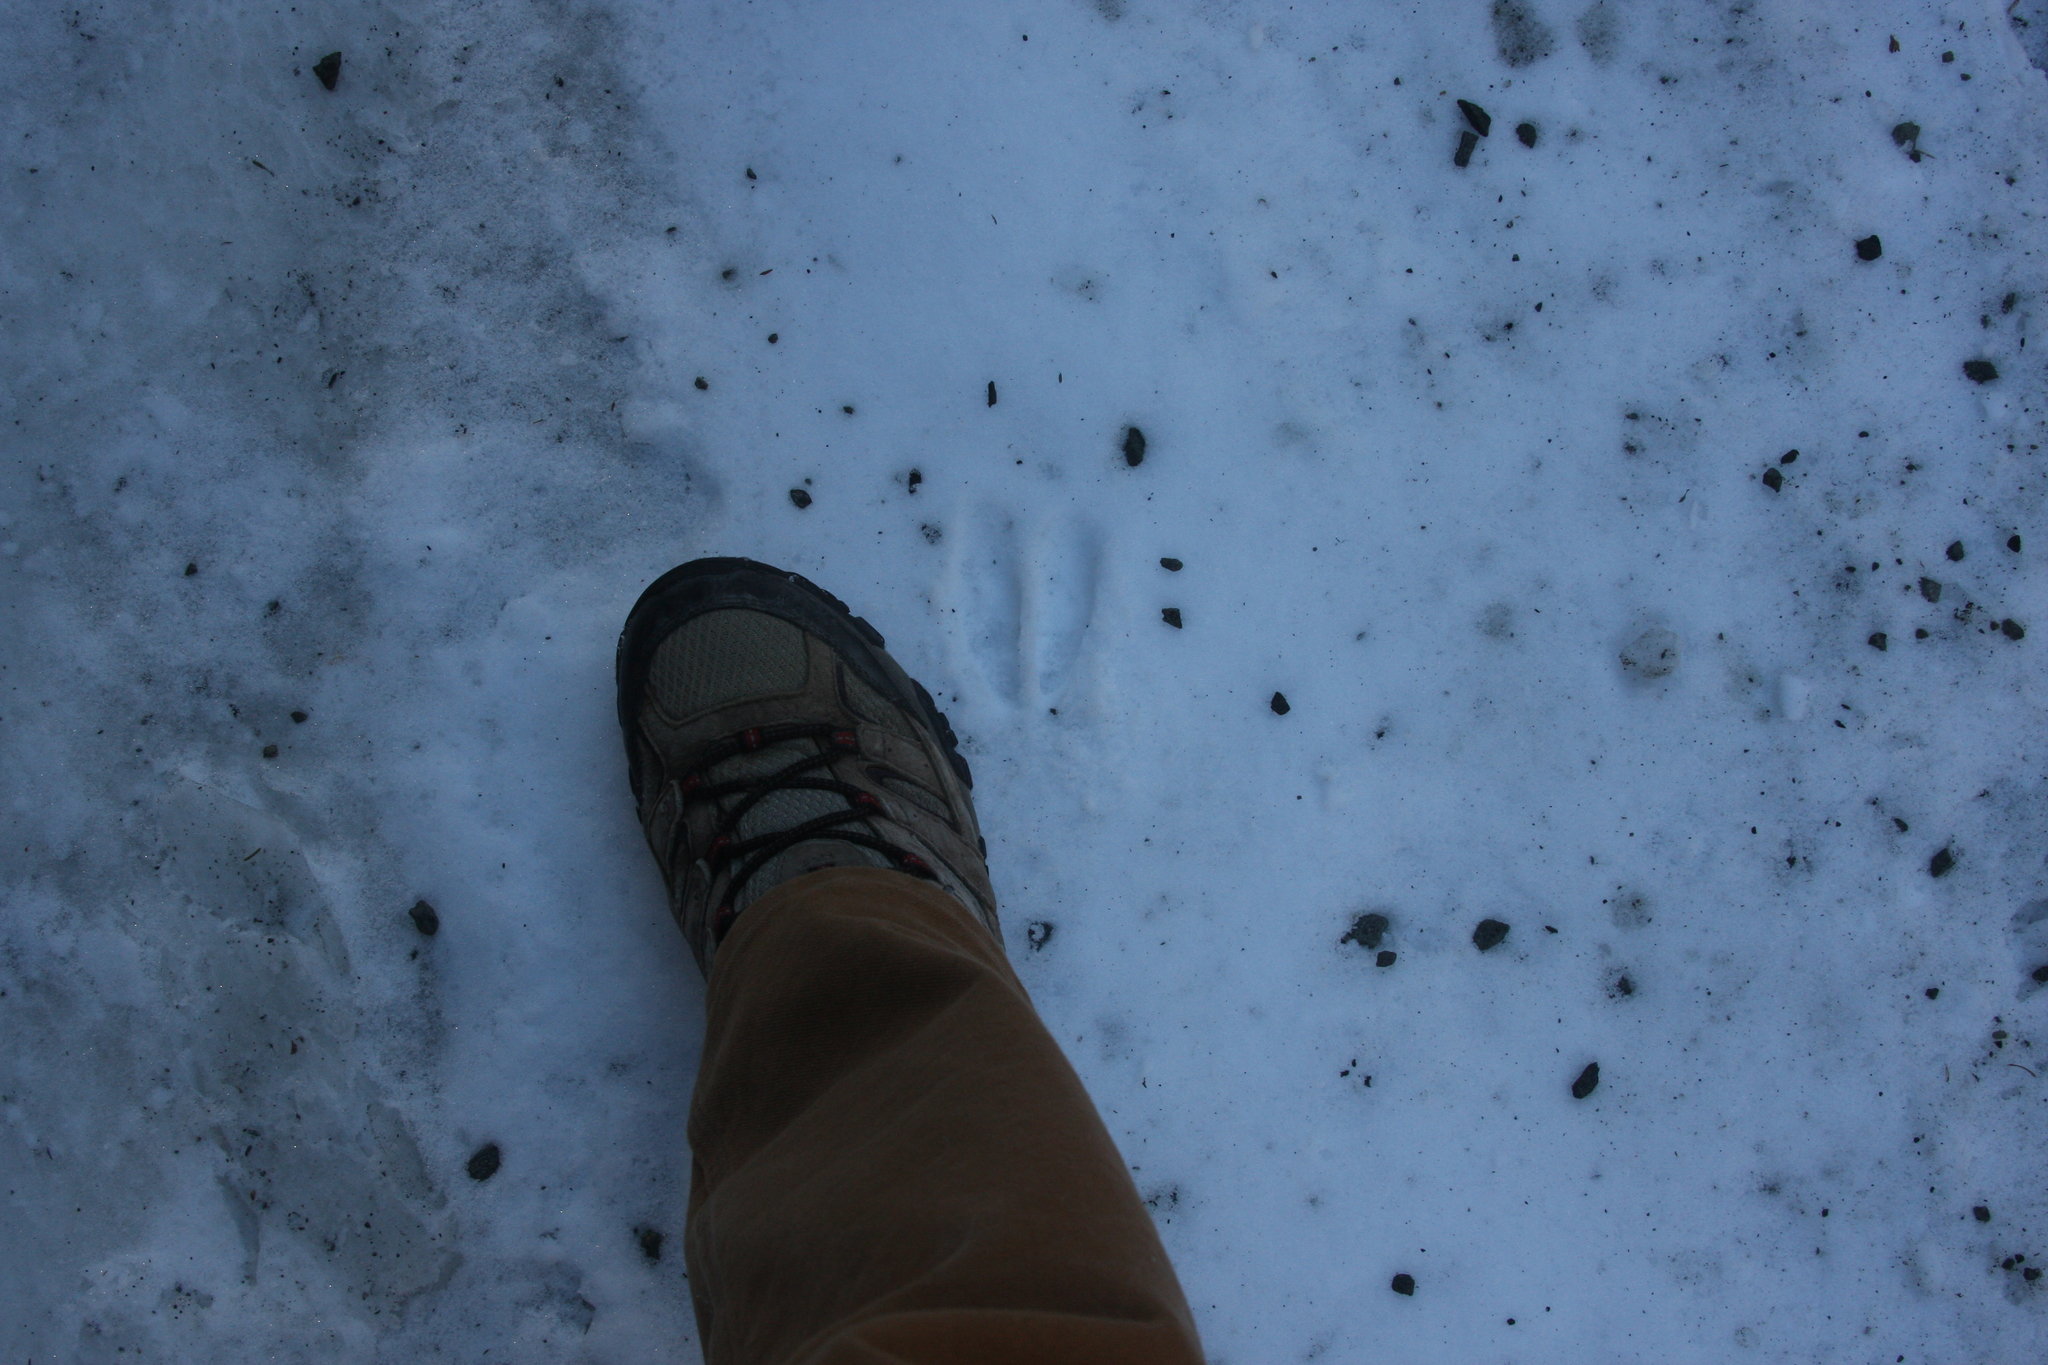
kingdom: Animalia
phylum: Chordata
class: Mammalia
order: Artiodactyla
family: Cervidae
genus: Odocoileus
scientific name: Odocoileus virginianus
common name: White-tailed deer
